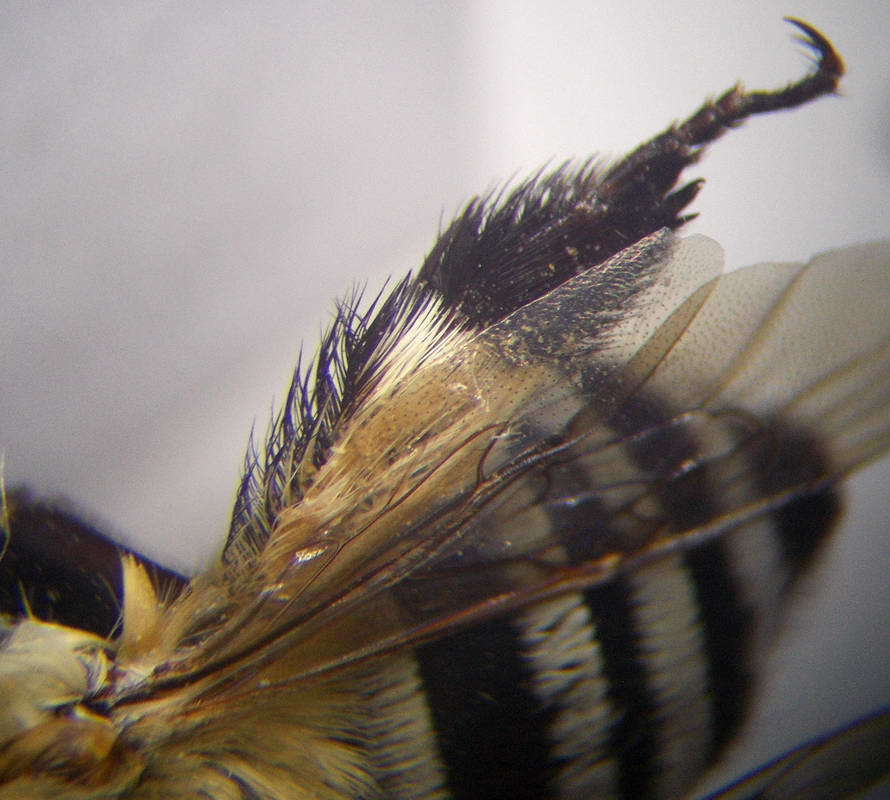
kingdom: Animalia
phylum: Arthropoda
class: Insecta
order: Hymenoptera
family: Apidae
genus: Amegilla
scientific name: Amegilla quadrifasciata
